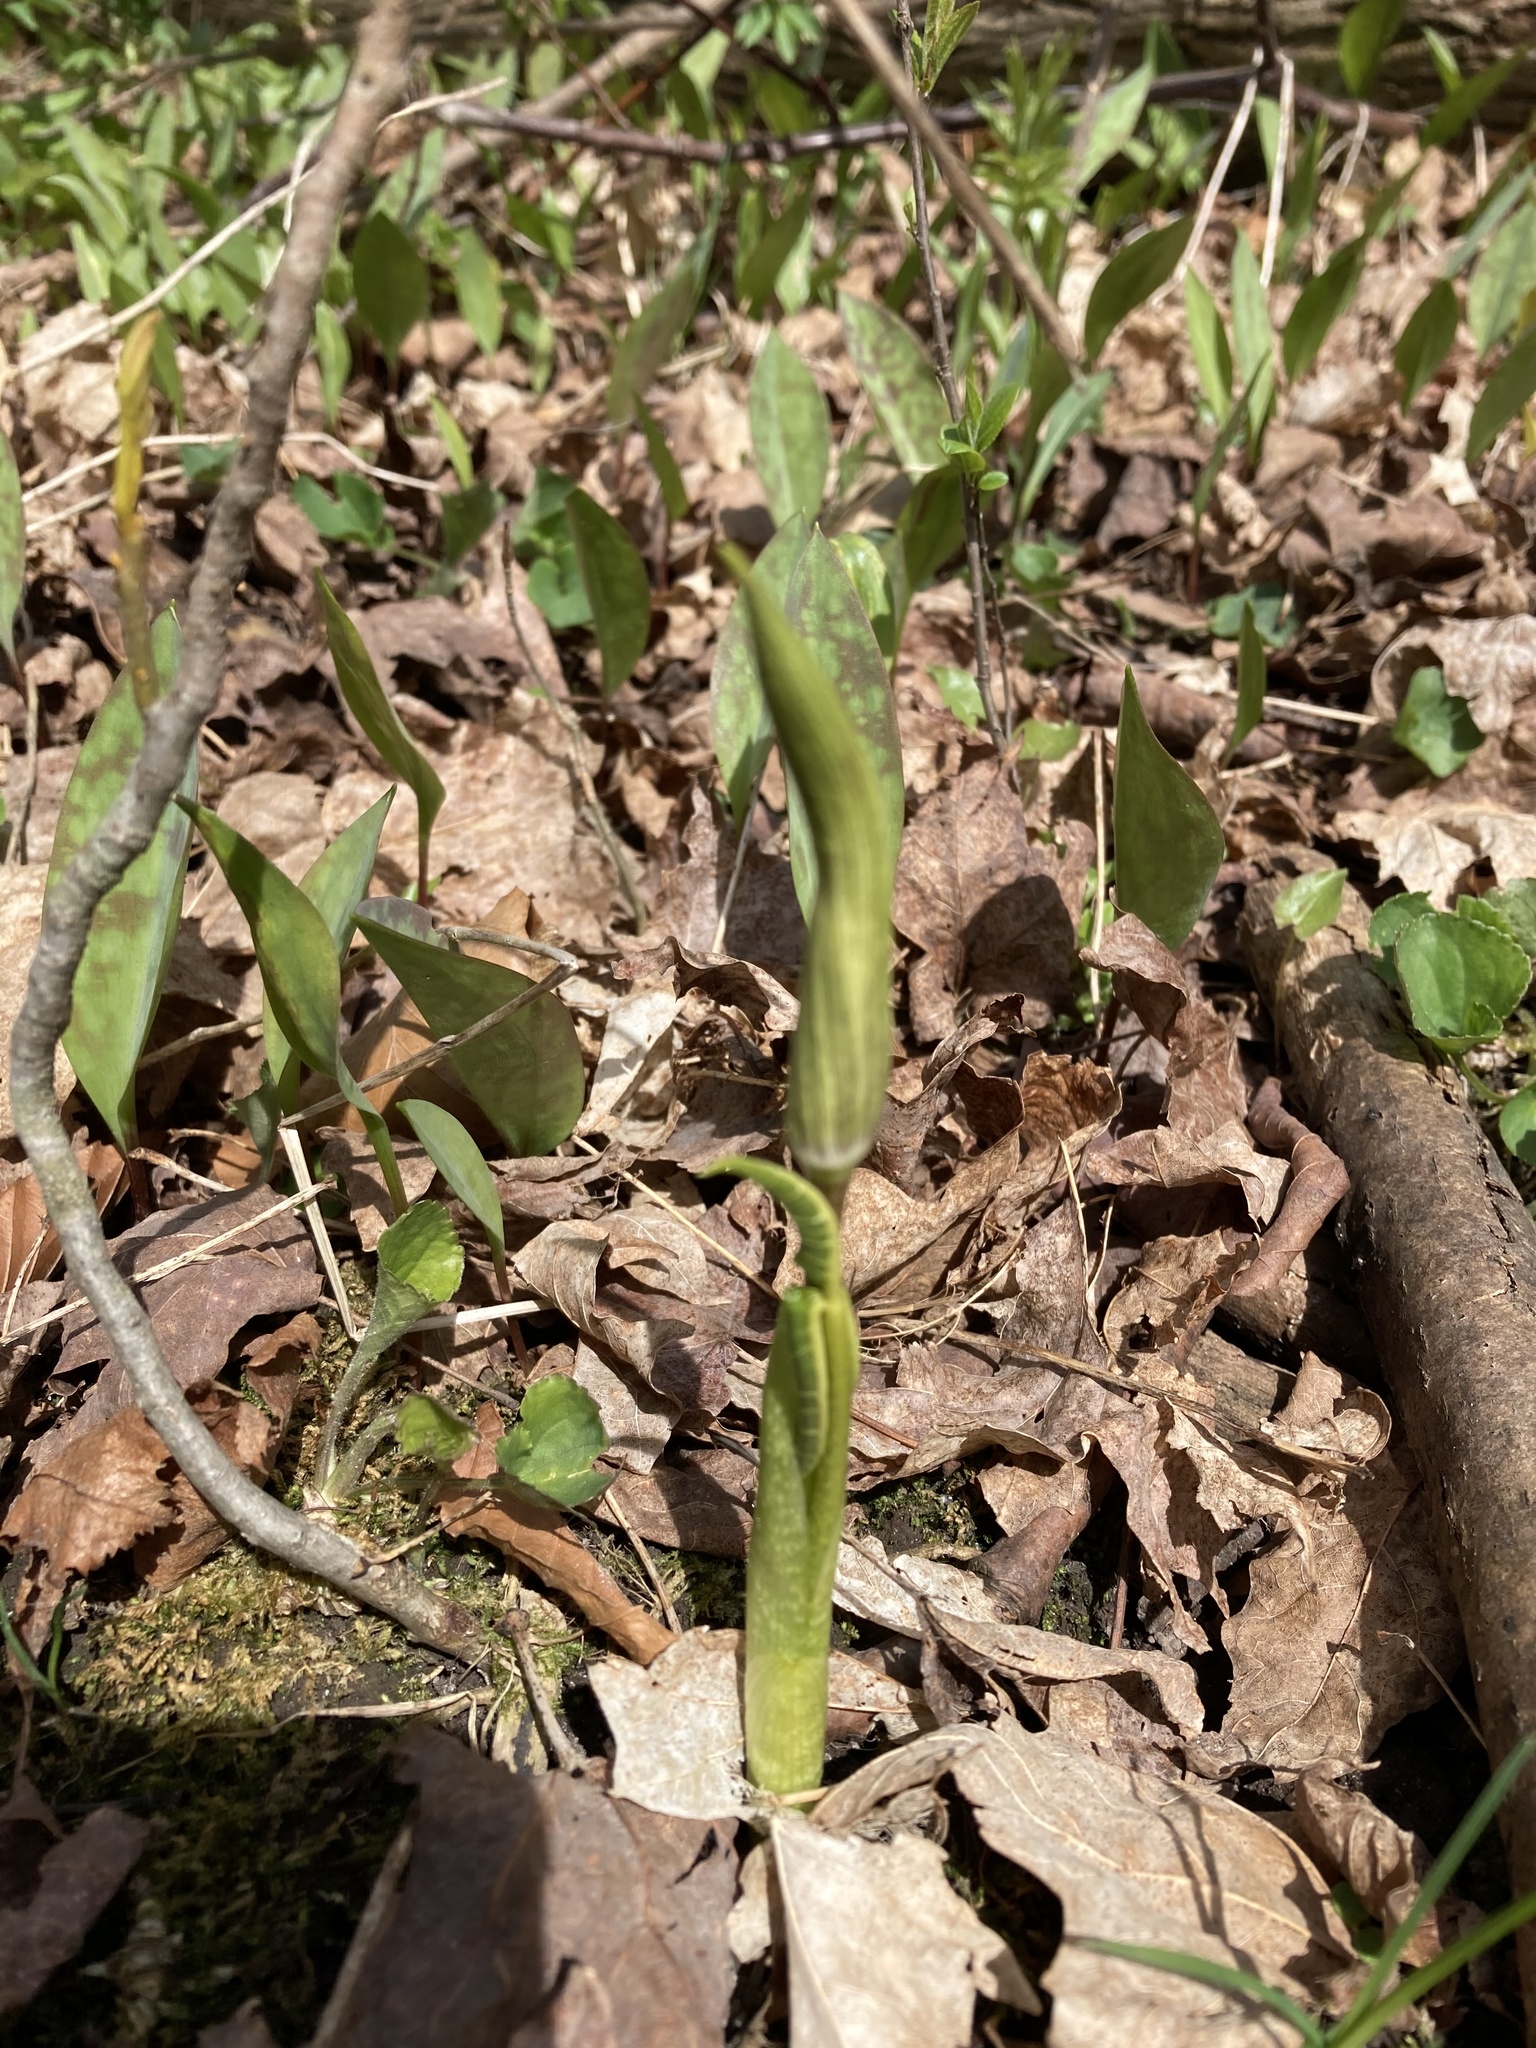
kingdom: Plantae
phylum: Tracheophyta
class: Liliopsida
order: Alismatales
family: Araceae
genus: Arisaema
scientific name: Arisaema triphyllum
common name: Jack-in-the-pulpit
